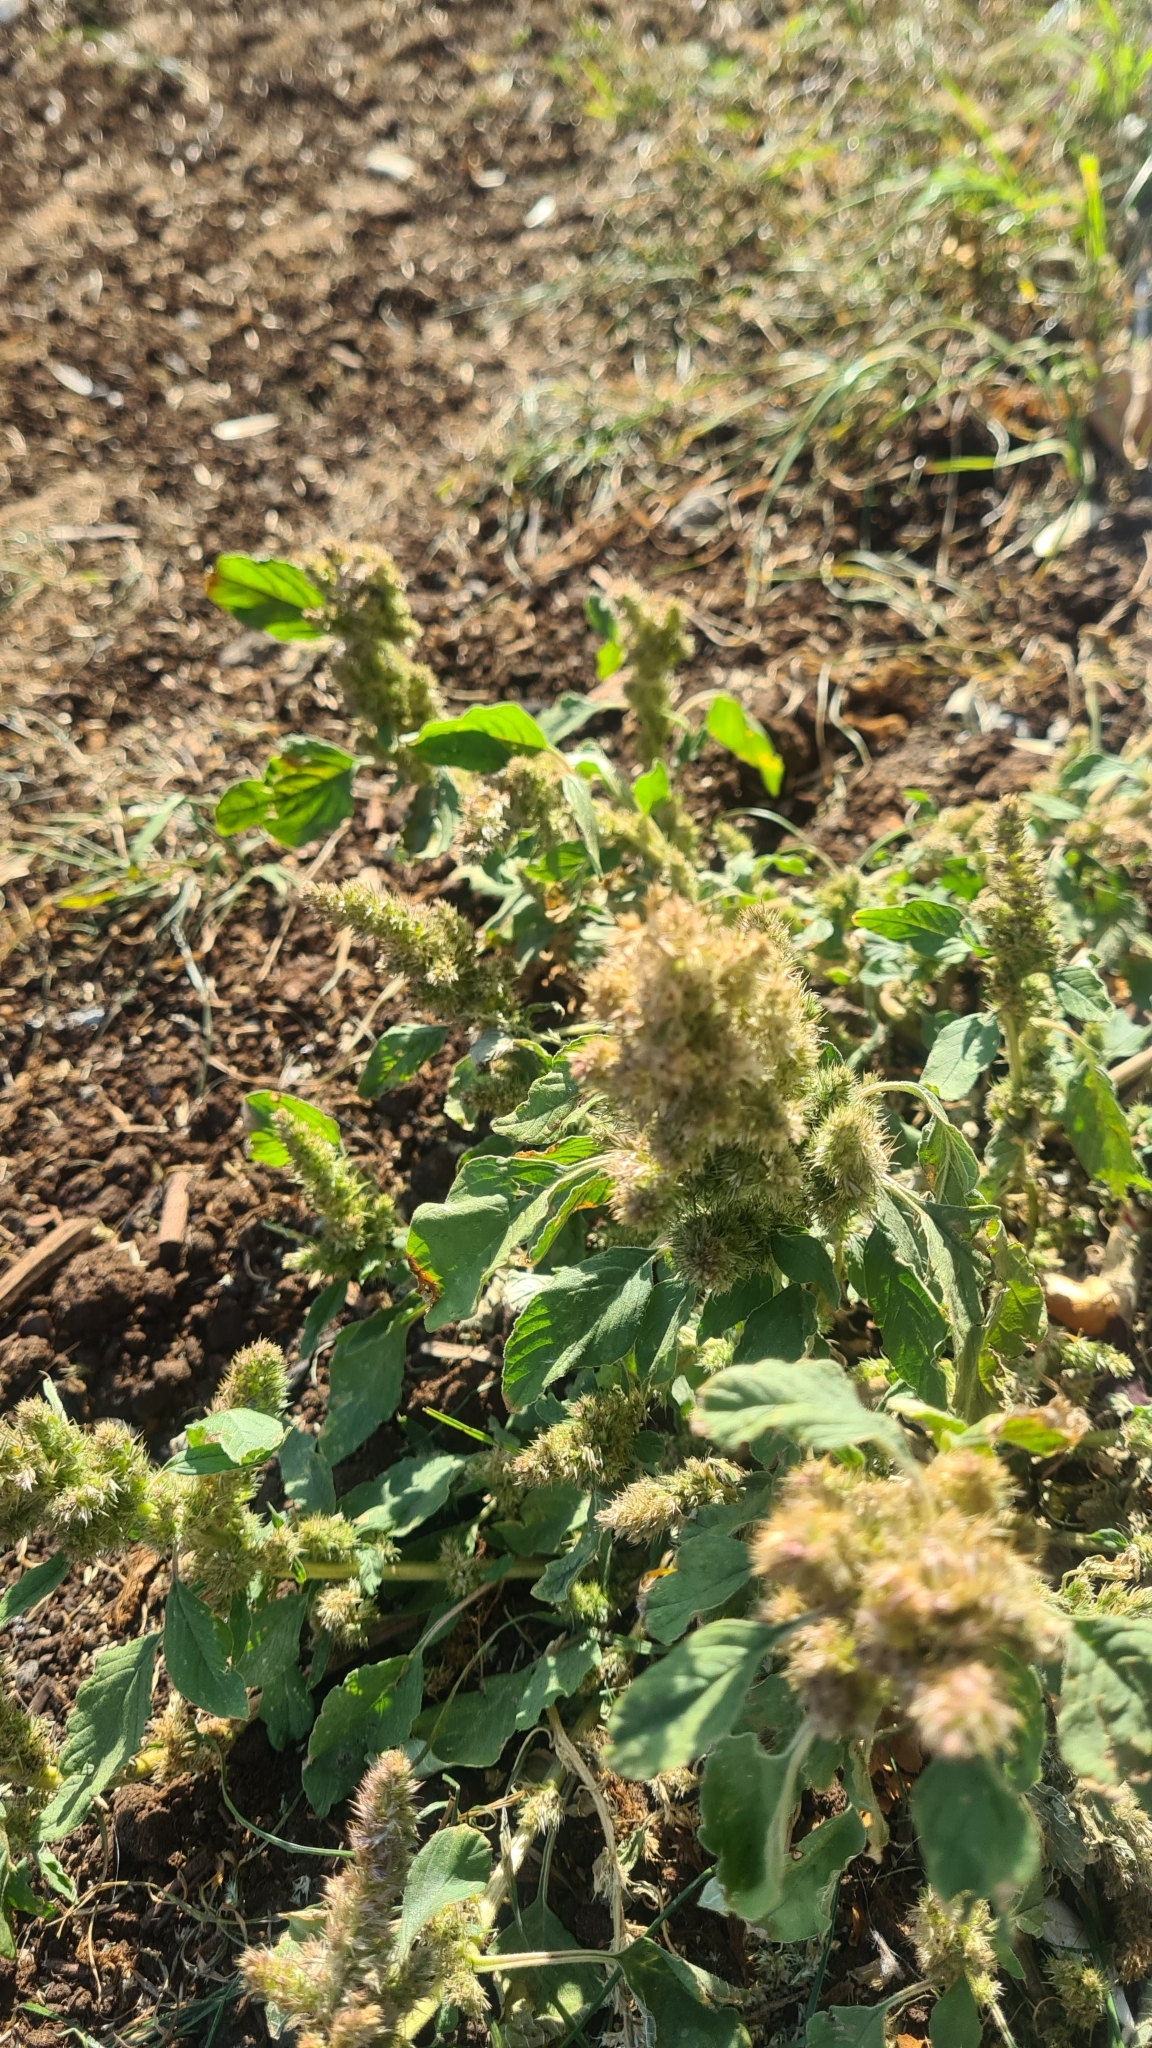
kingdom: Plantae
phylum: Tracheophyta
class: Magnoliopsida
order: Caryophyllales
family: Amaranthaceae
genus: Amaranthus
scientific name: Amaranthus retroflexus
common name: Redroot amaranth
